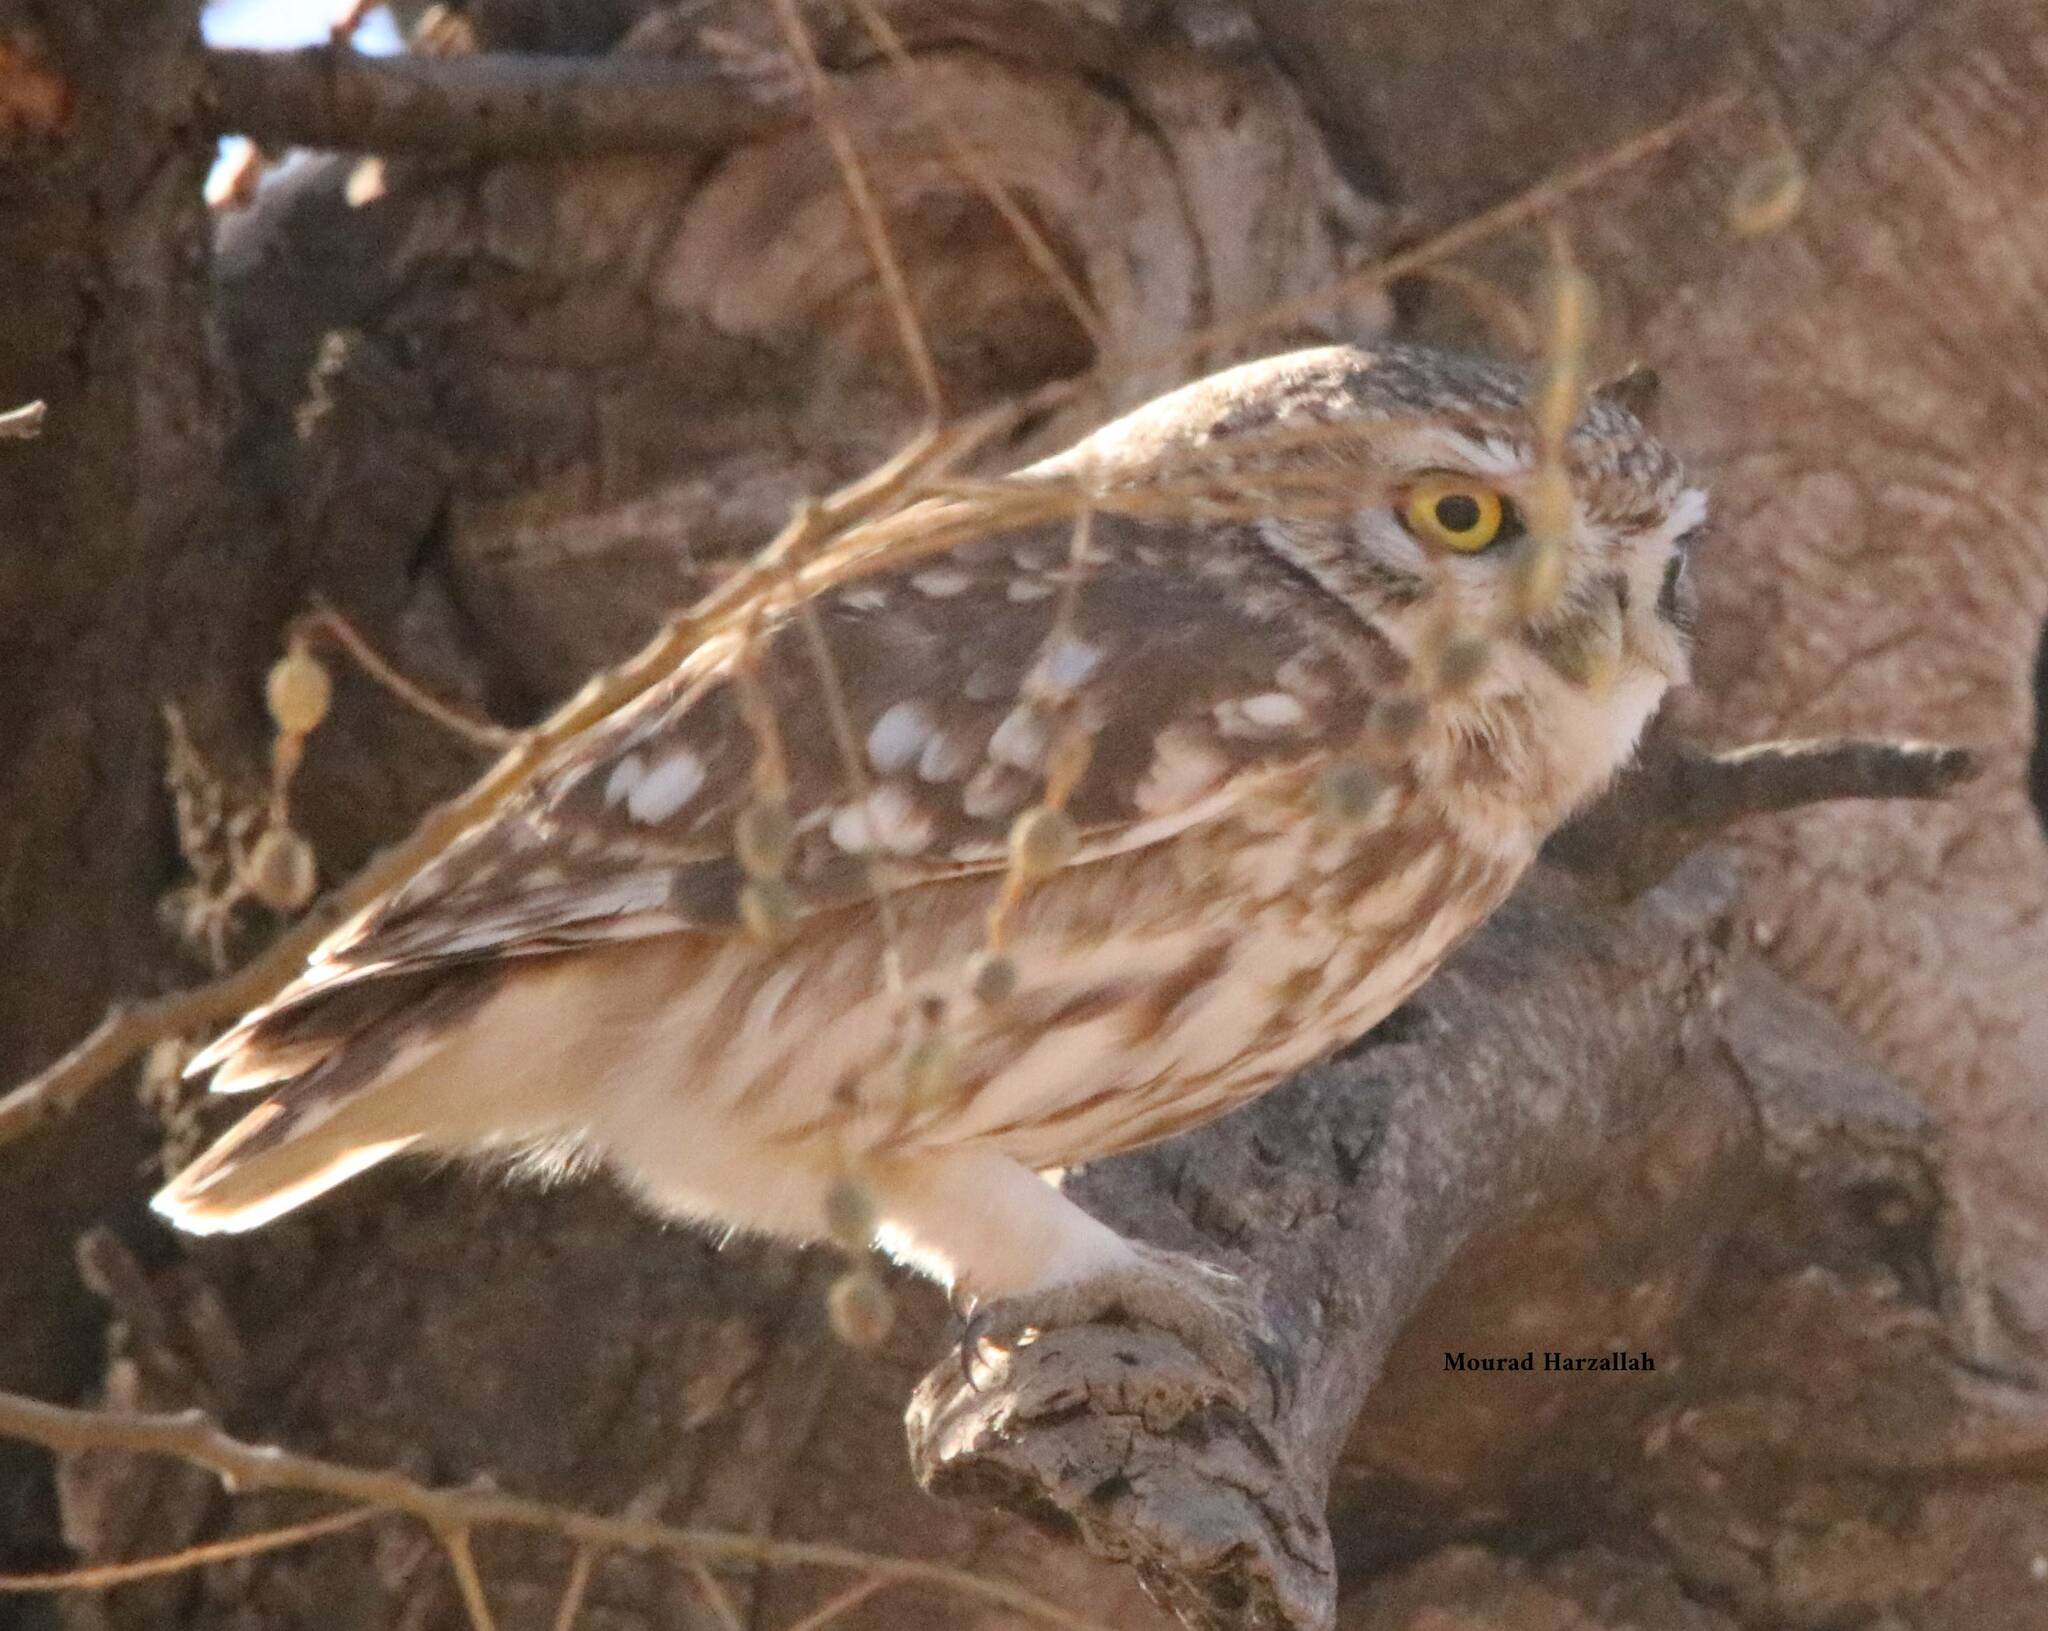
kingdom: Animalia
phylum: Chordata
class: Aves
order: Strigiformes
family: Strigidae
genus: Athene
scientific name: Athene noctua
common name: Little owl
